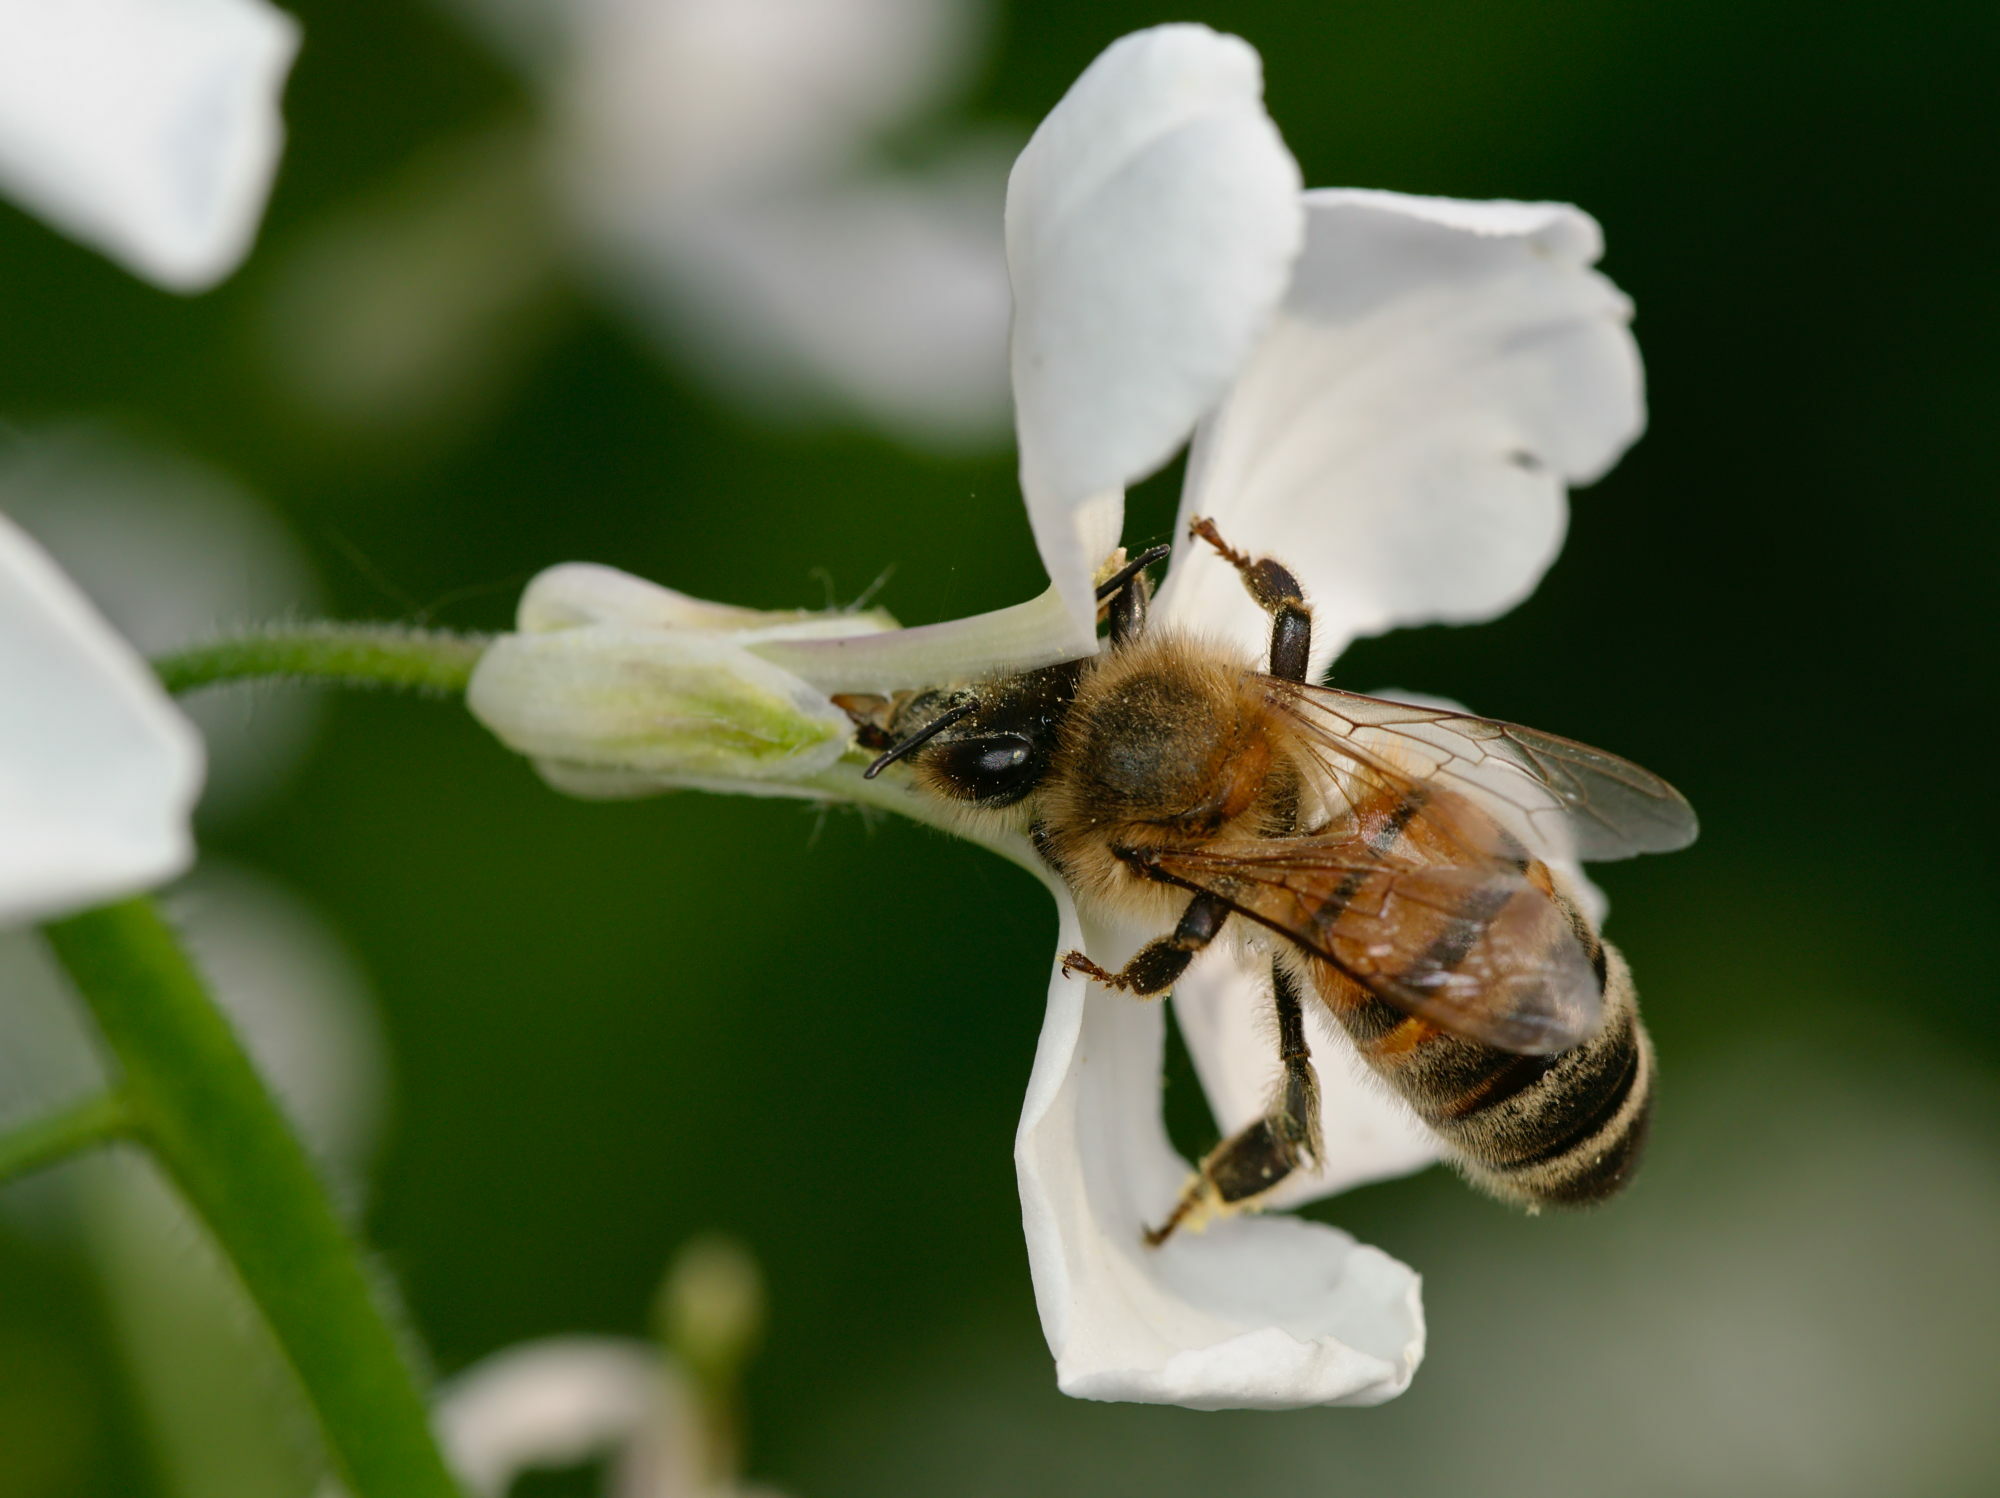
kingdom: Animalia
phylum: Arthropoda
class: Insecta
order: Hymenoptera
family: Apidae
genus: Apis
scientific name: Apis mellifera
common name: Honey bee
